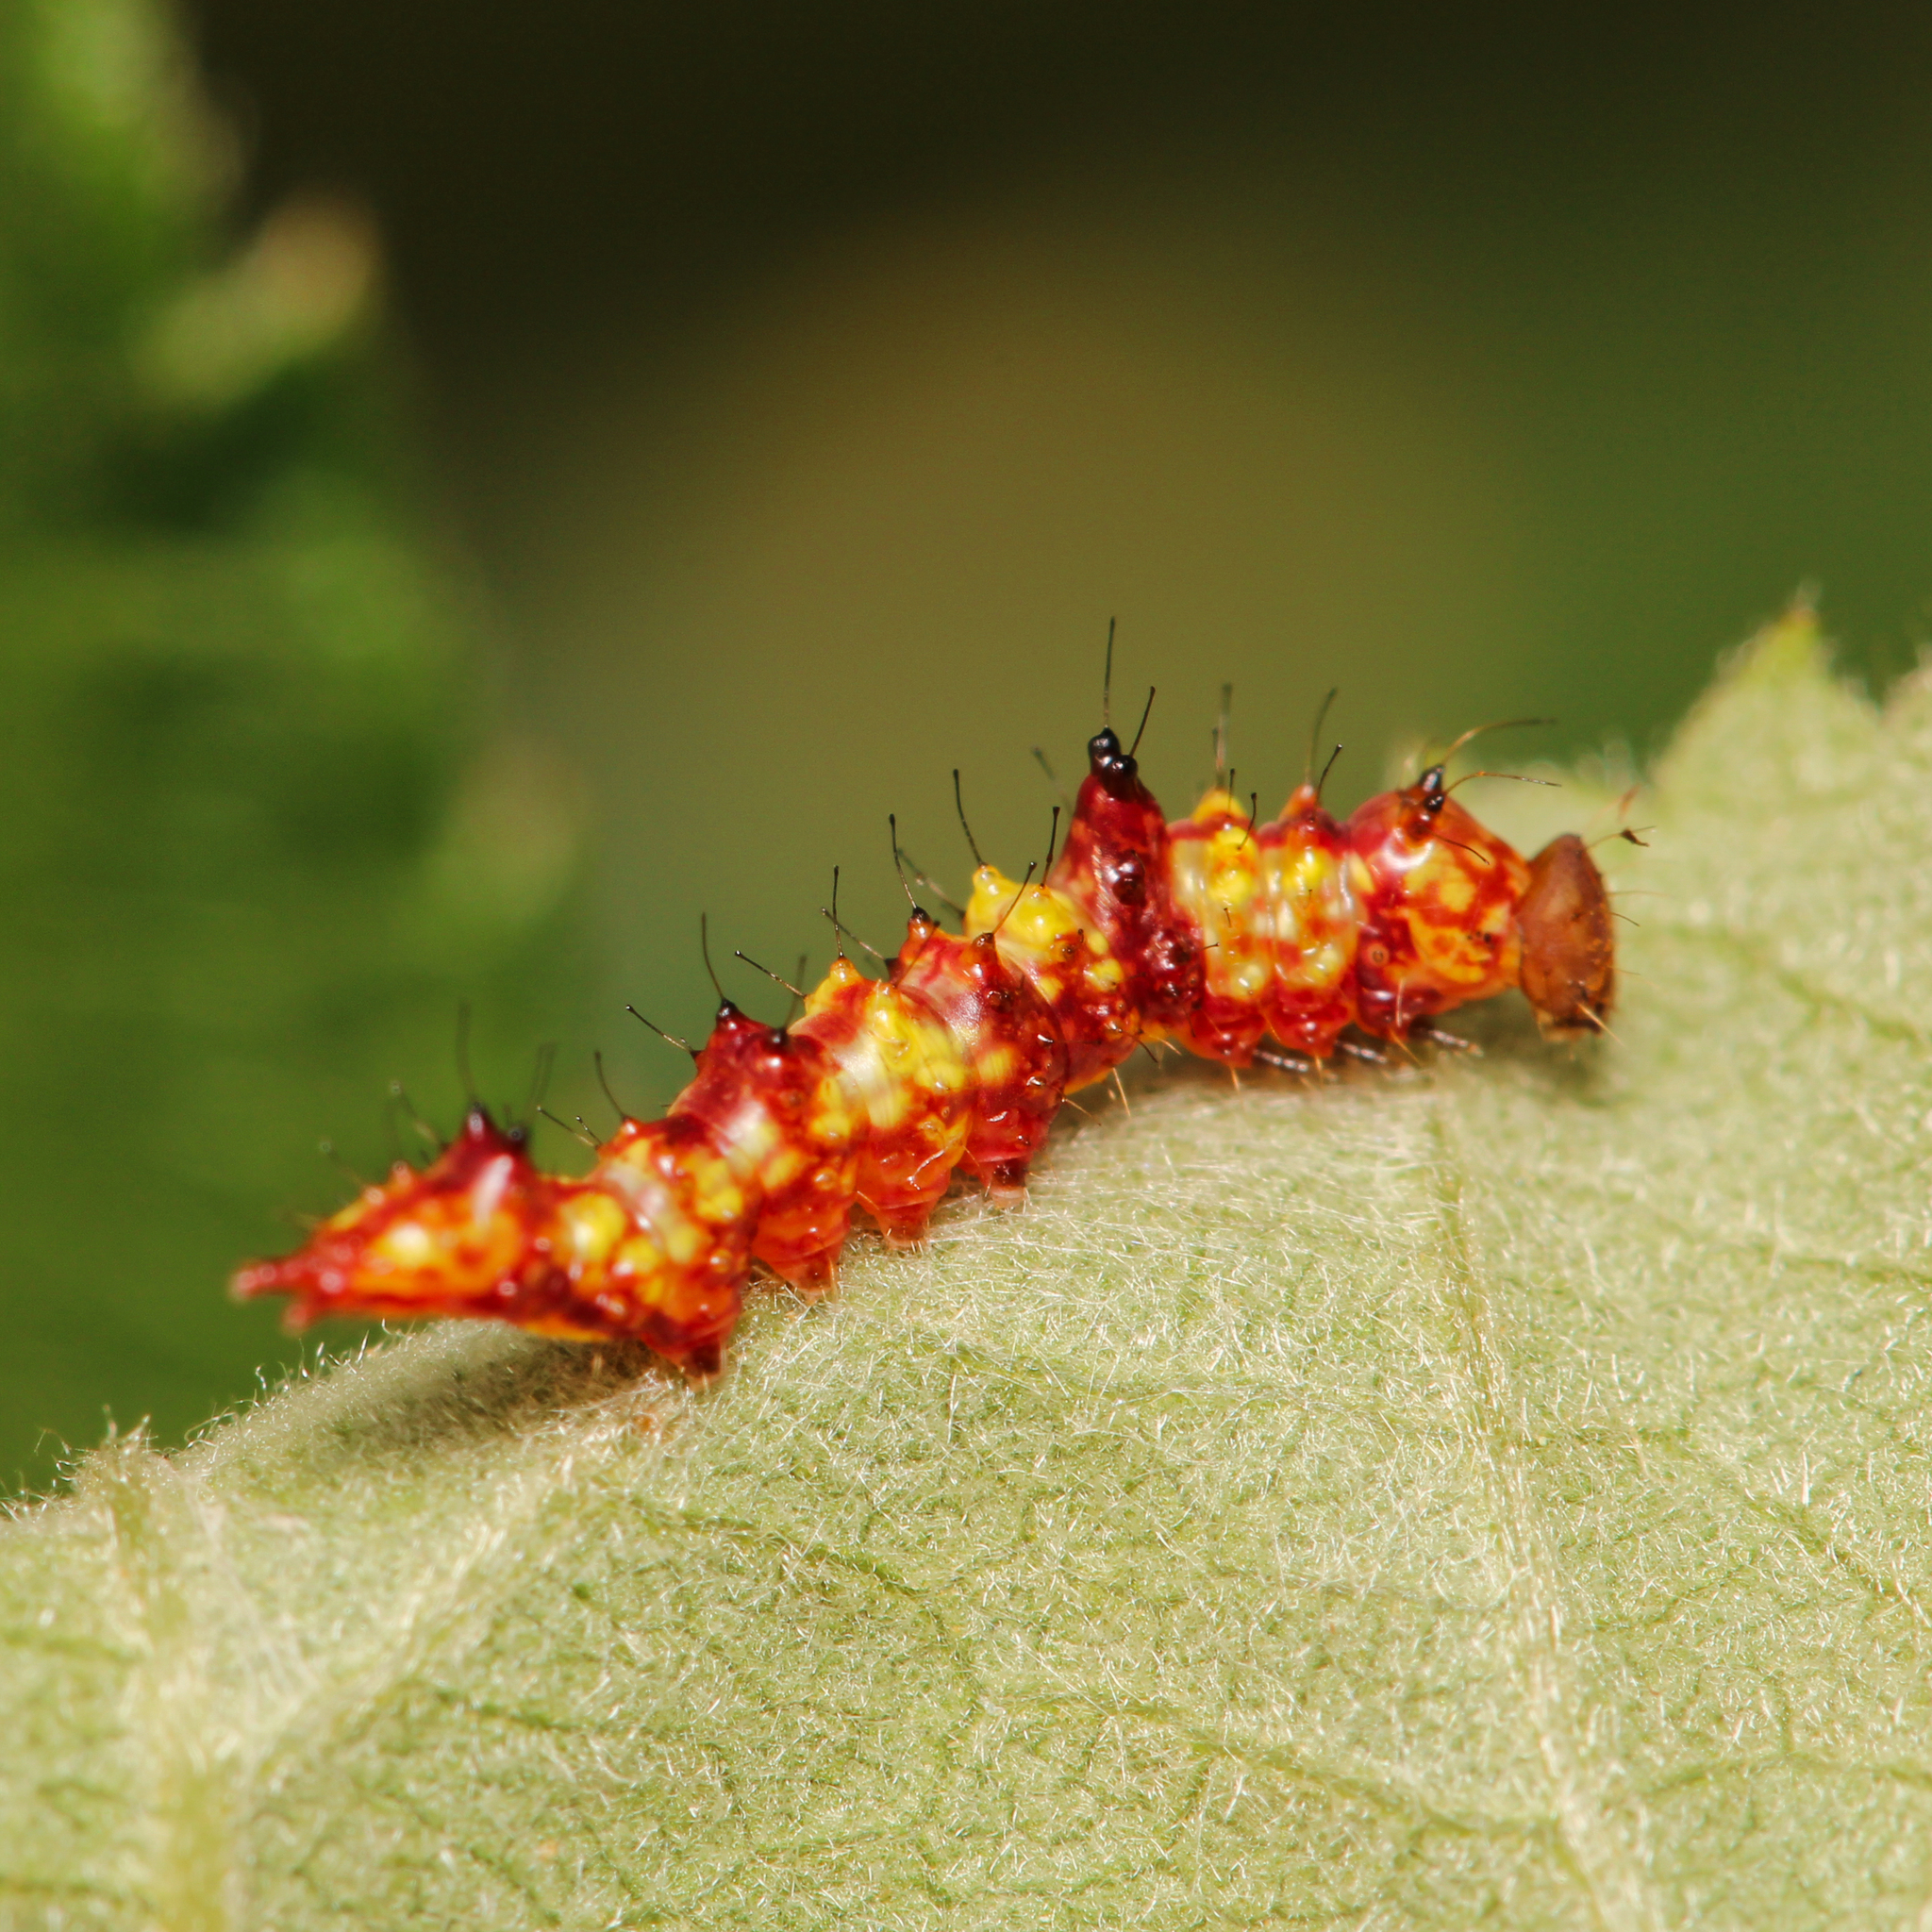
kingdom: Animalia
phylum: Arthropoda
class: Insecta
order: Lepidoptera
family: Notodontidae
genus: Schizura
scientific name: Schizura ipomaeae
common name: Morning-glory prominent
